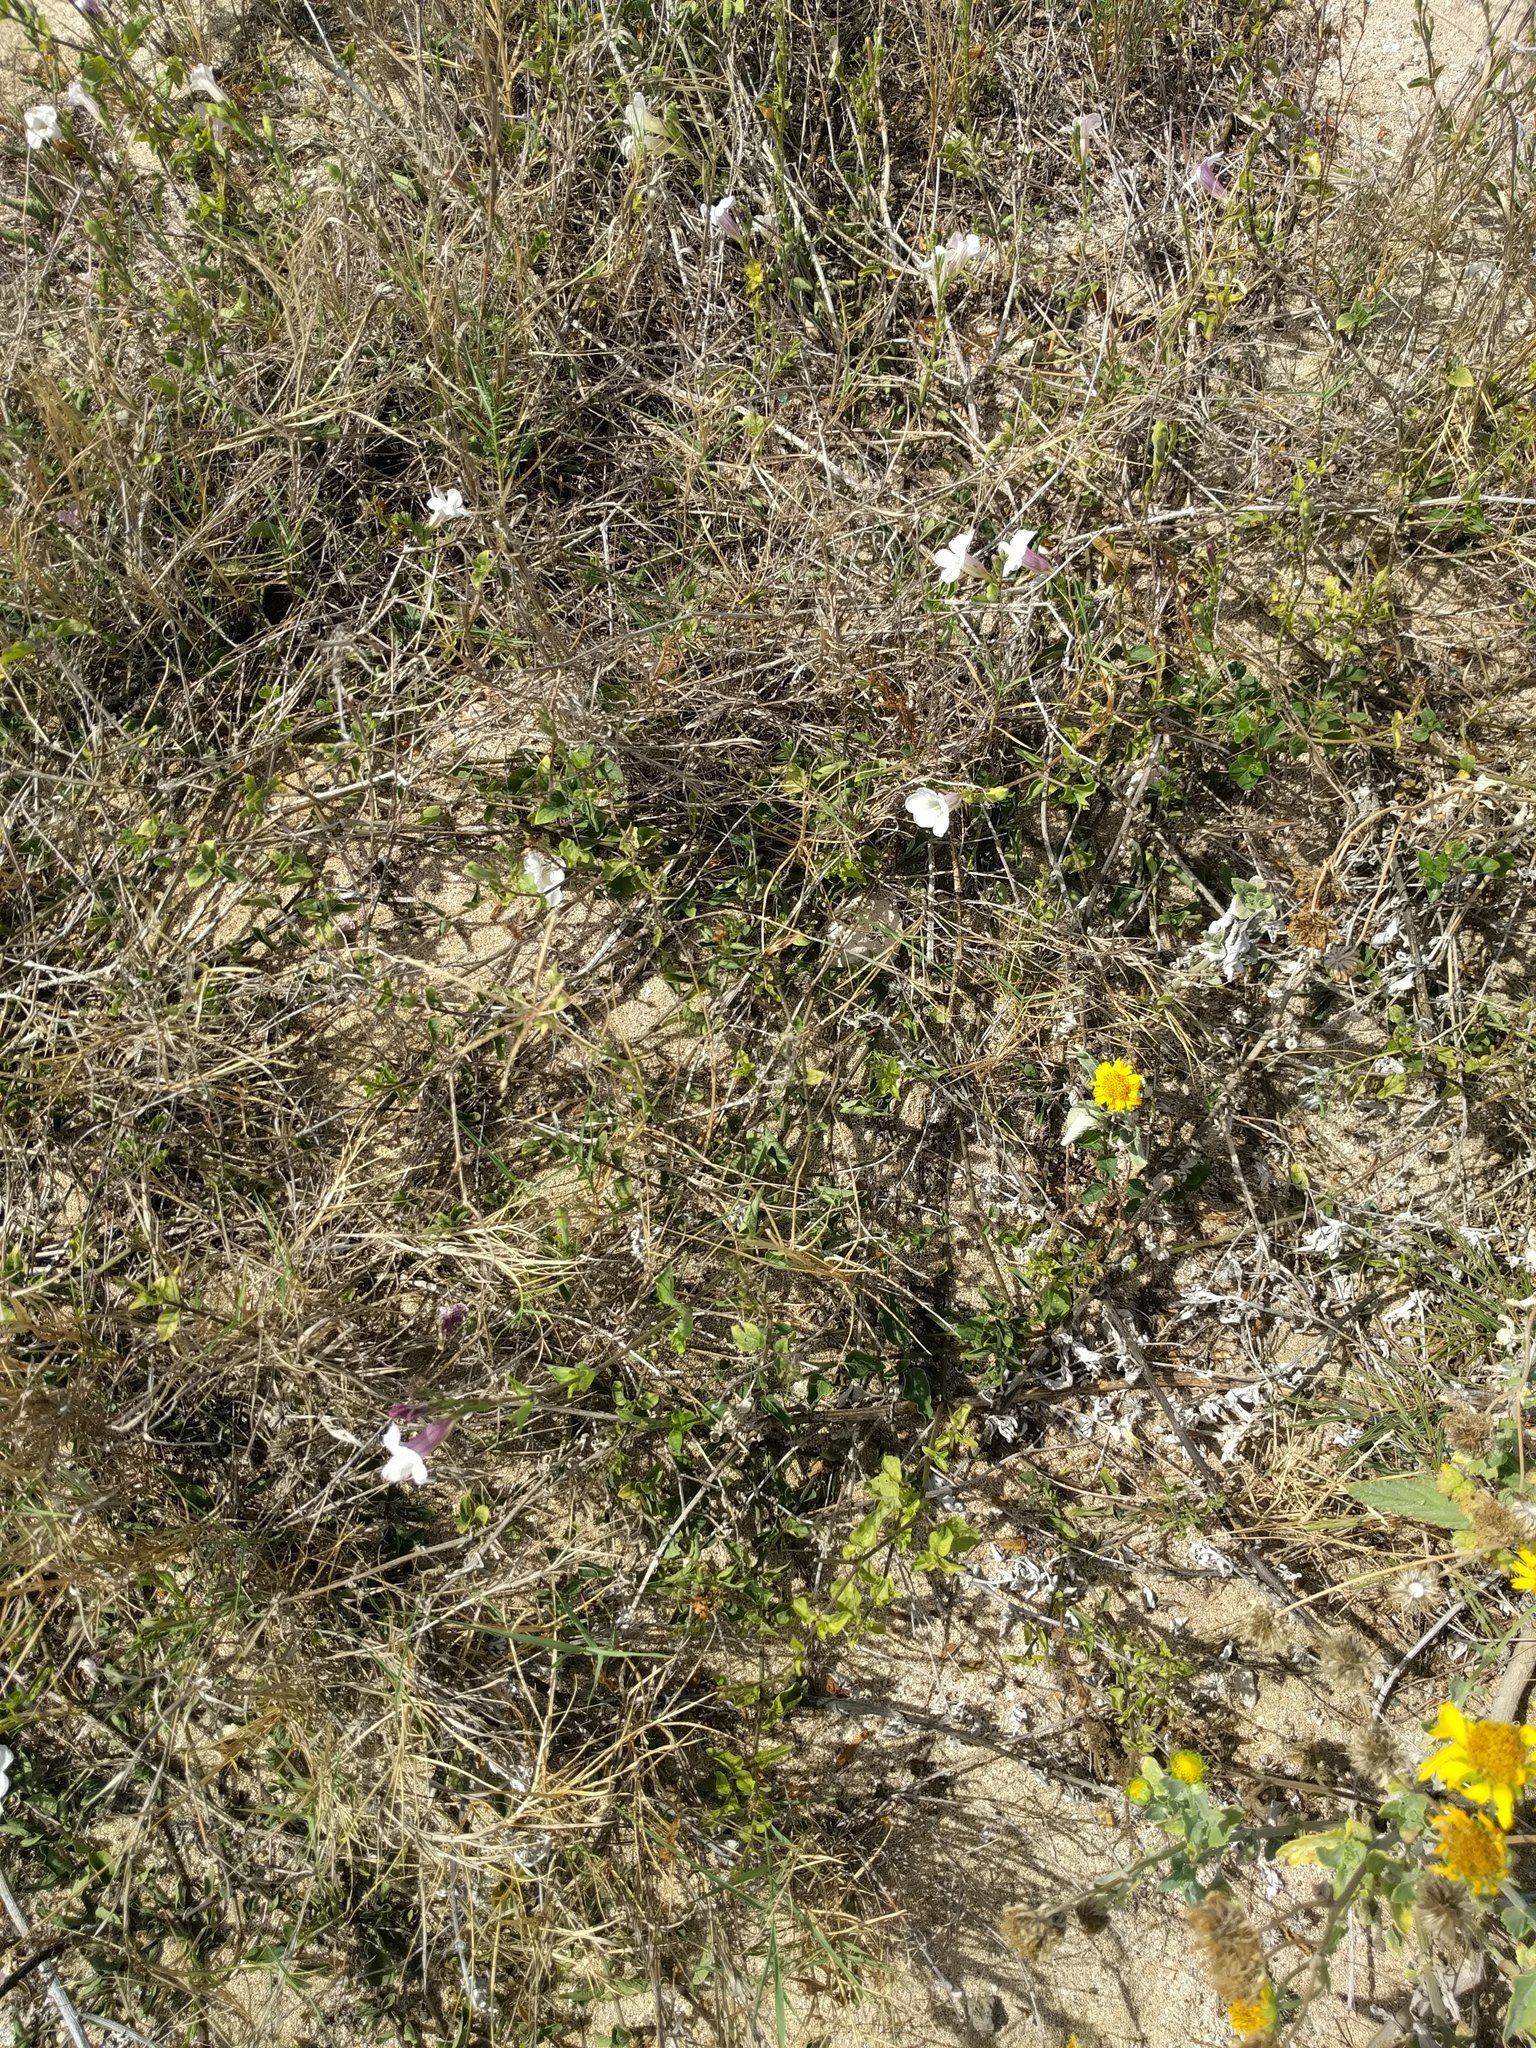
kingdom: Plantae
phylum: Tracheophyta
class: Magnoliopsida
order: Lamiales
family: Acanthaceae
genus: Asystasia
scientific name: Asystasia gangetica
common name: Chinese violet
